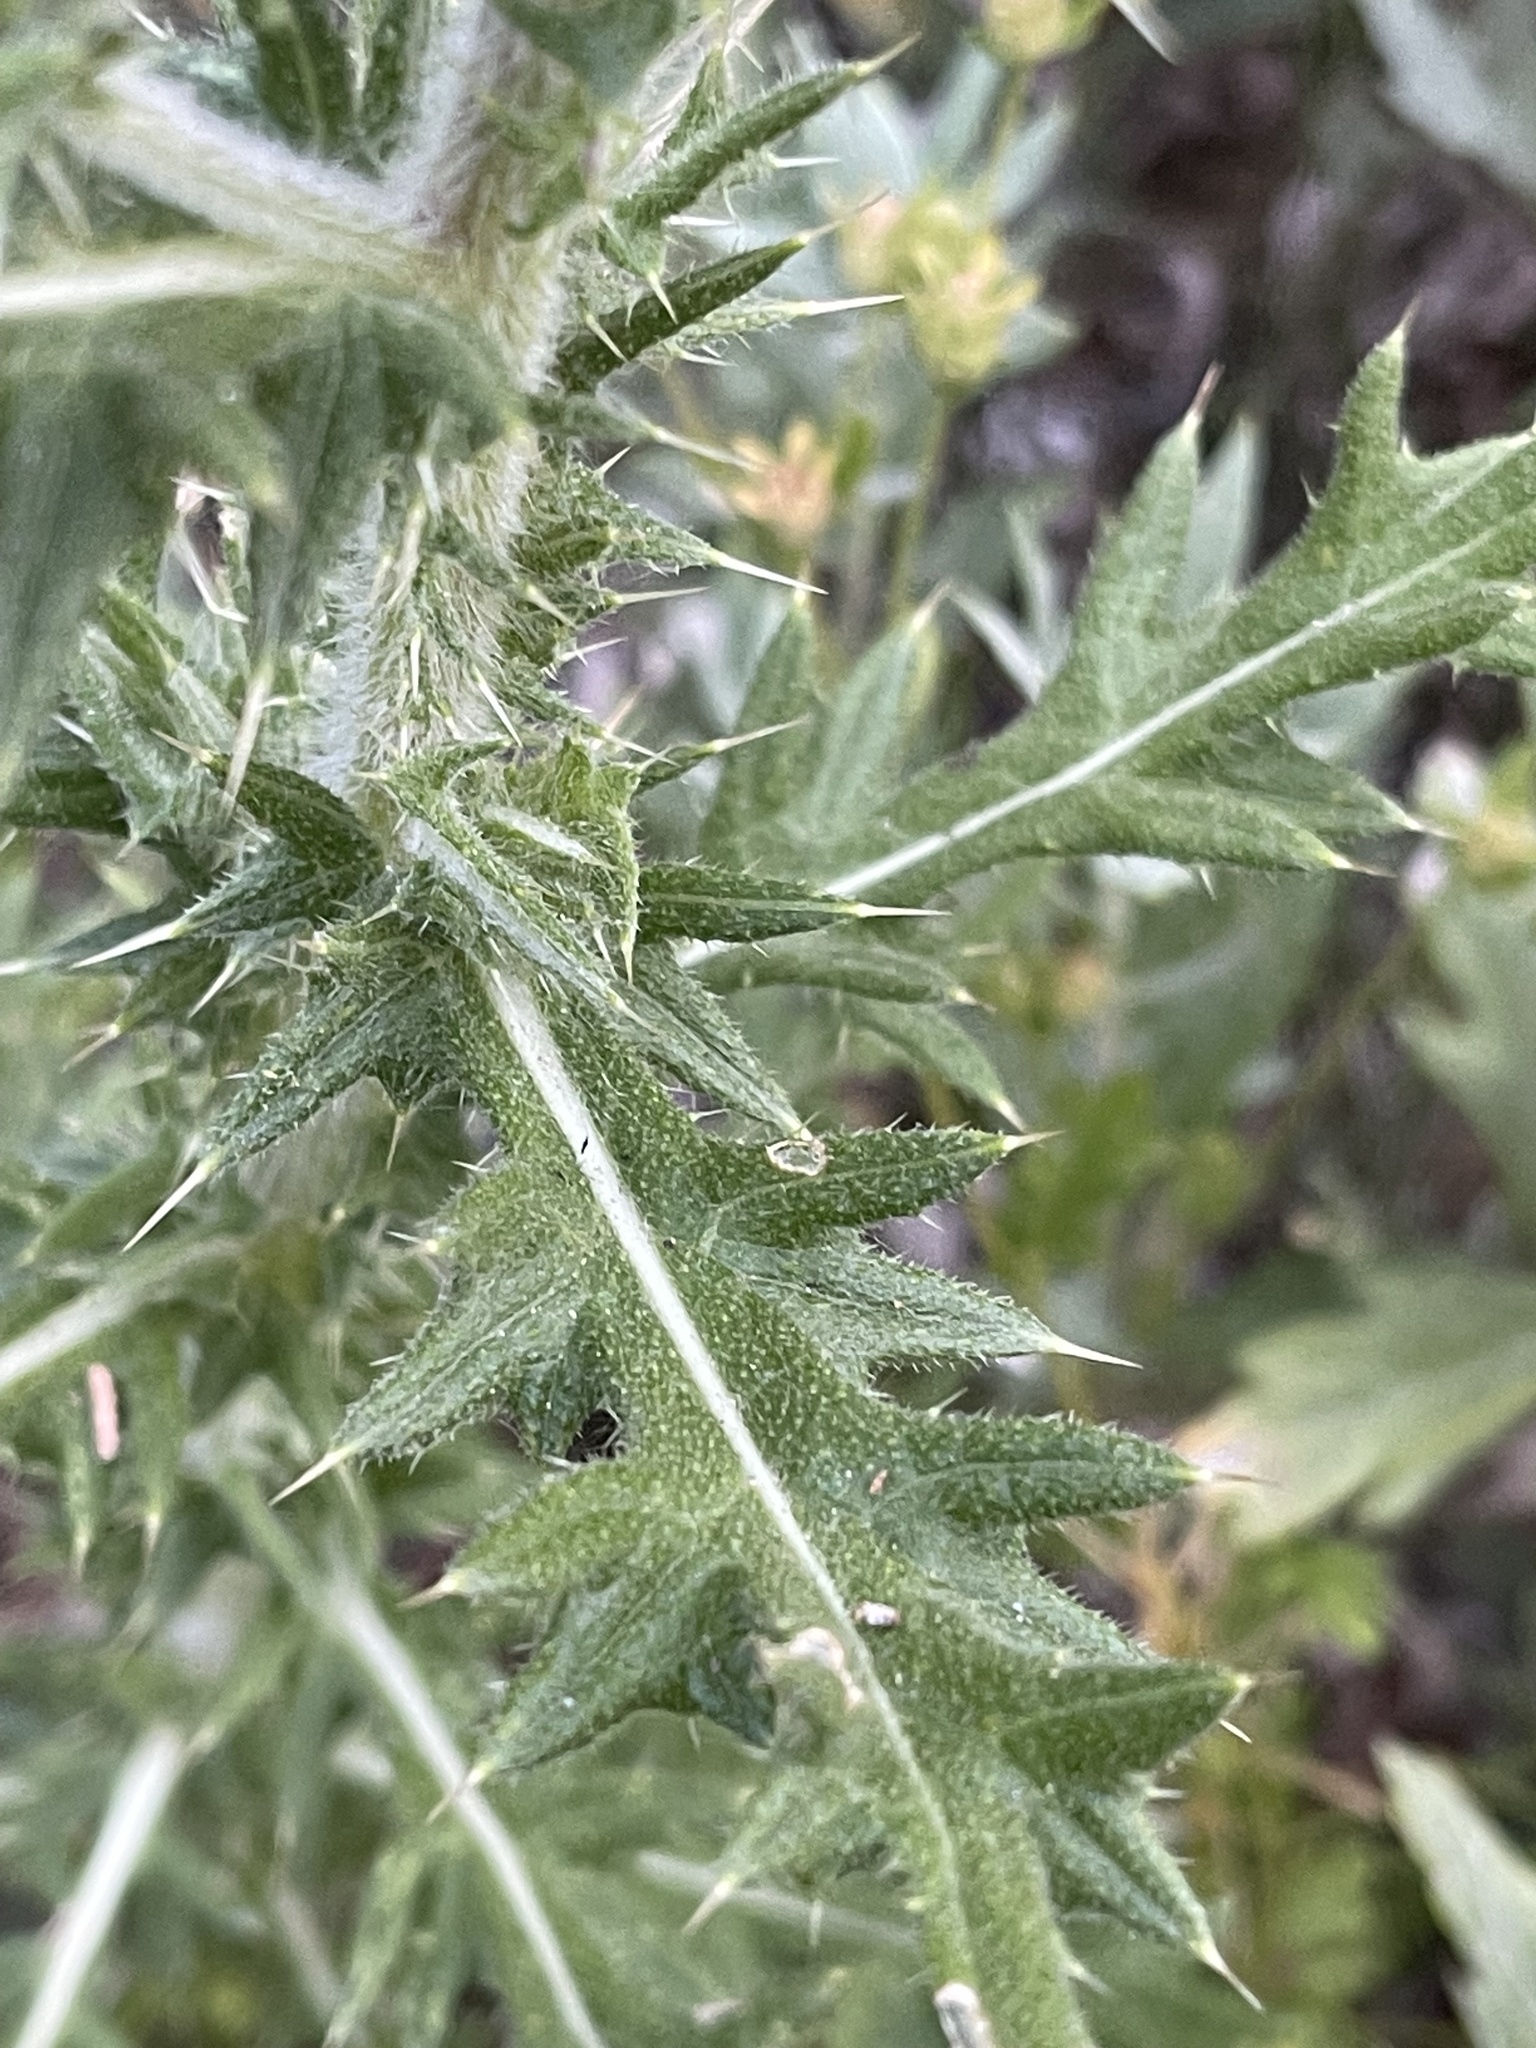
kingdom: Plantae
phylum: Tracheophyta
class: Magnoliopsida
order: Asterales
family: Asteraceae
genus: Cirsium
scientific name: Cirsium vulgare
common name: Bull thistle
